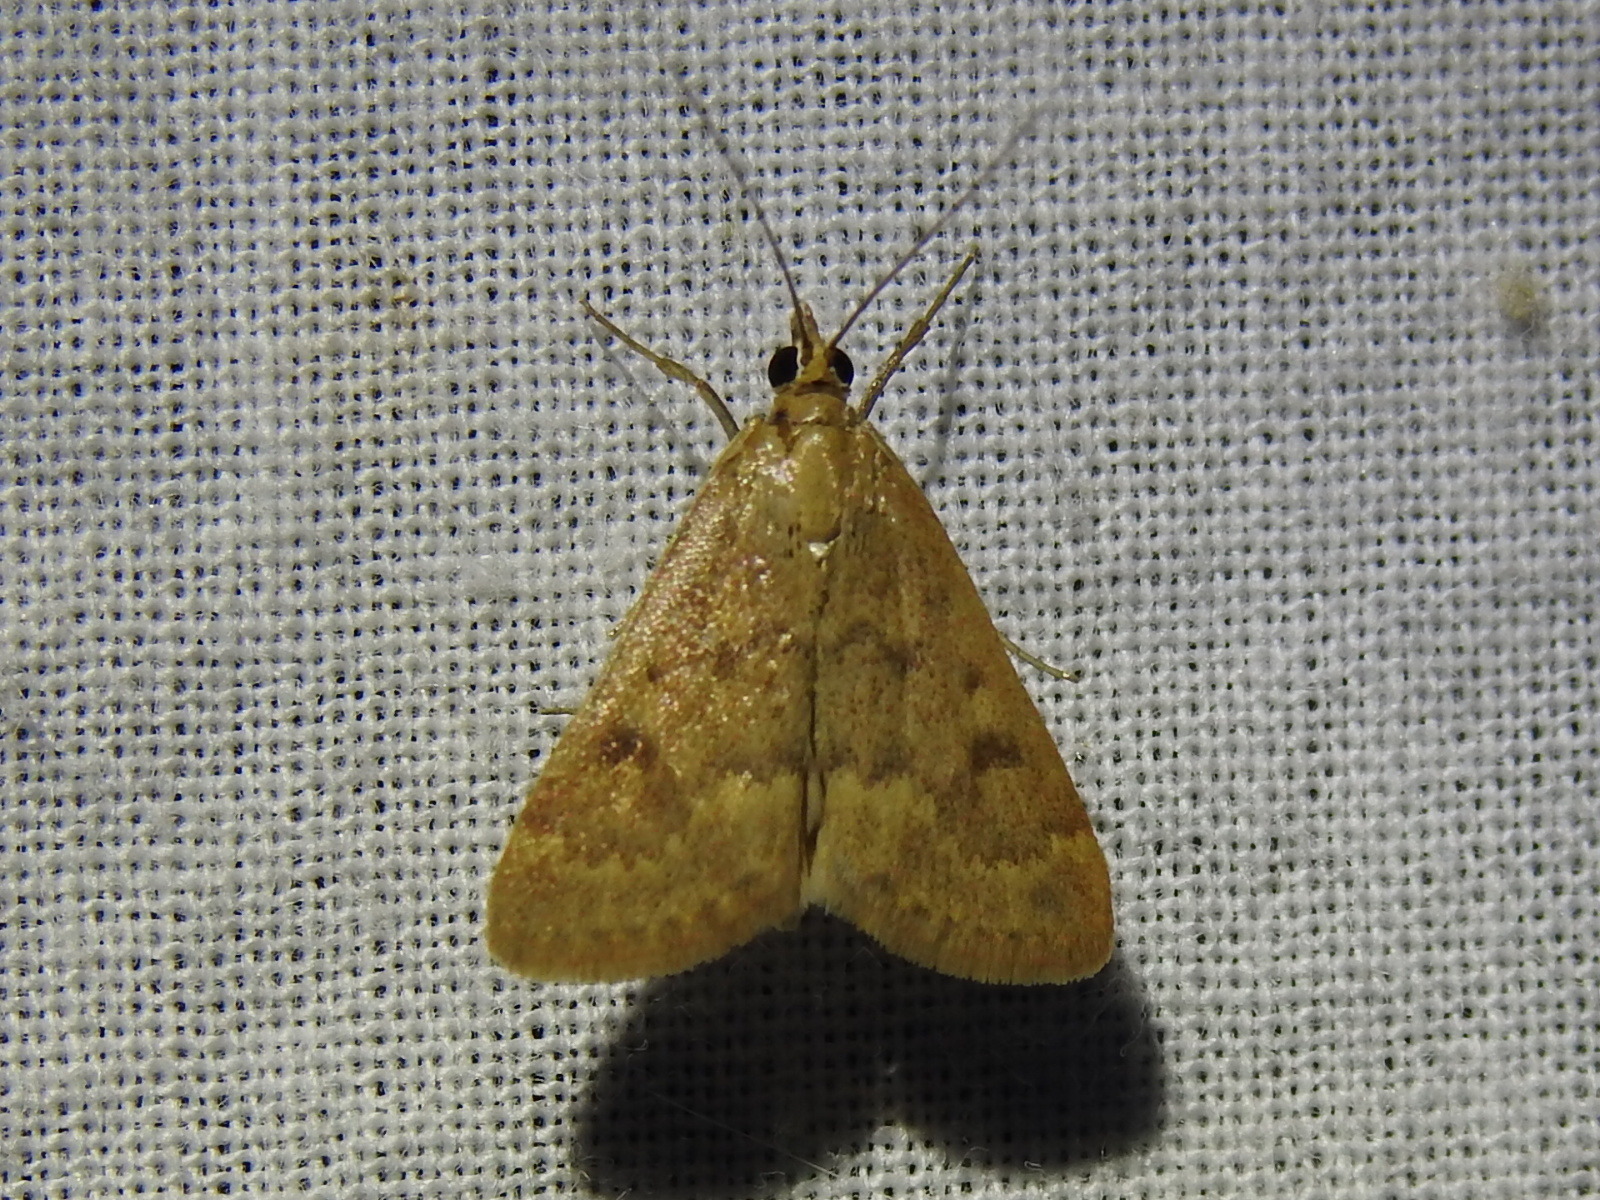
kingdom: Animalia
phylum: Arthropoda
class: Insecta
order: Lepidoptera
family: Crambidae
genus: Achyra
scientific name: Achyra rantalis
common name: Garden webworm
